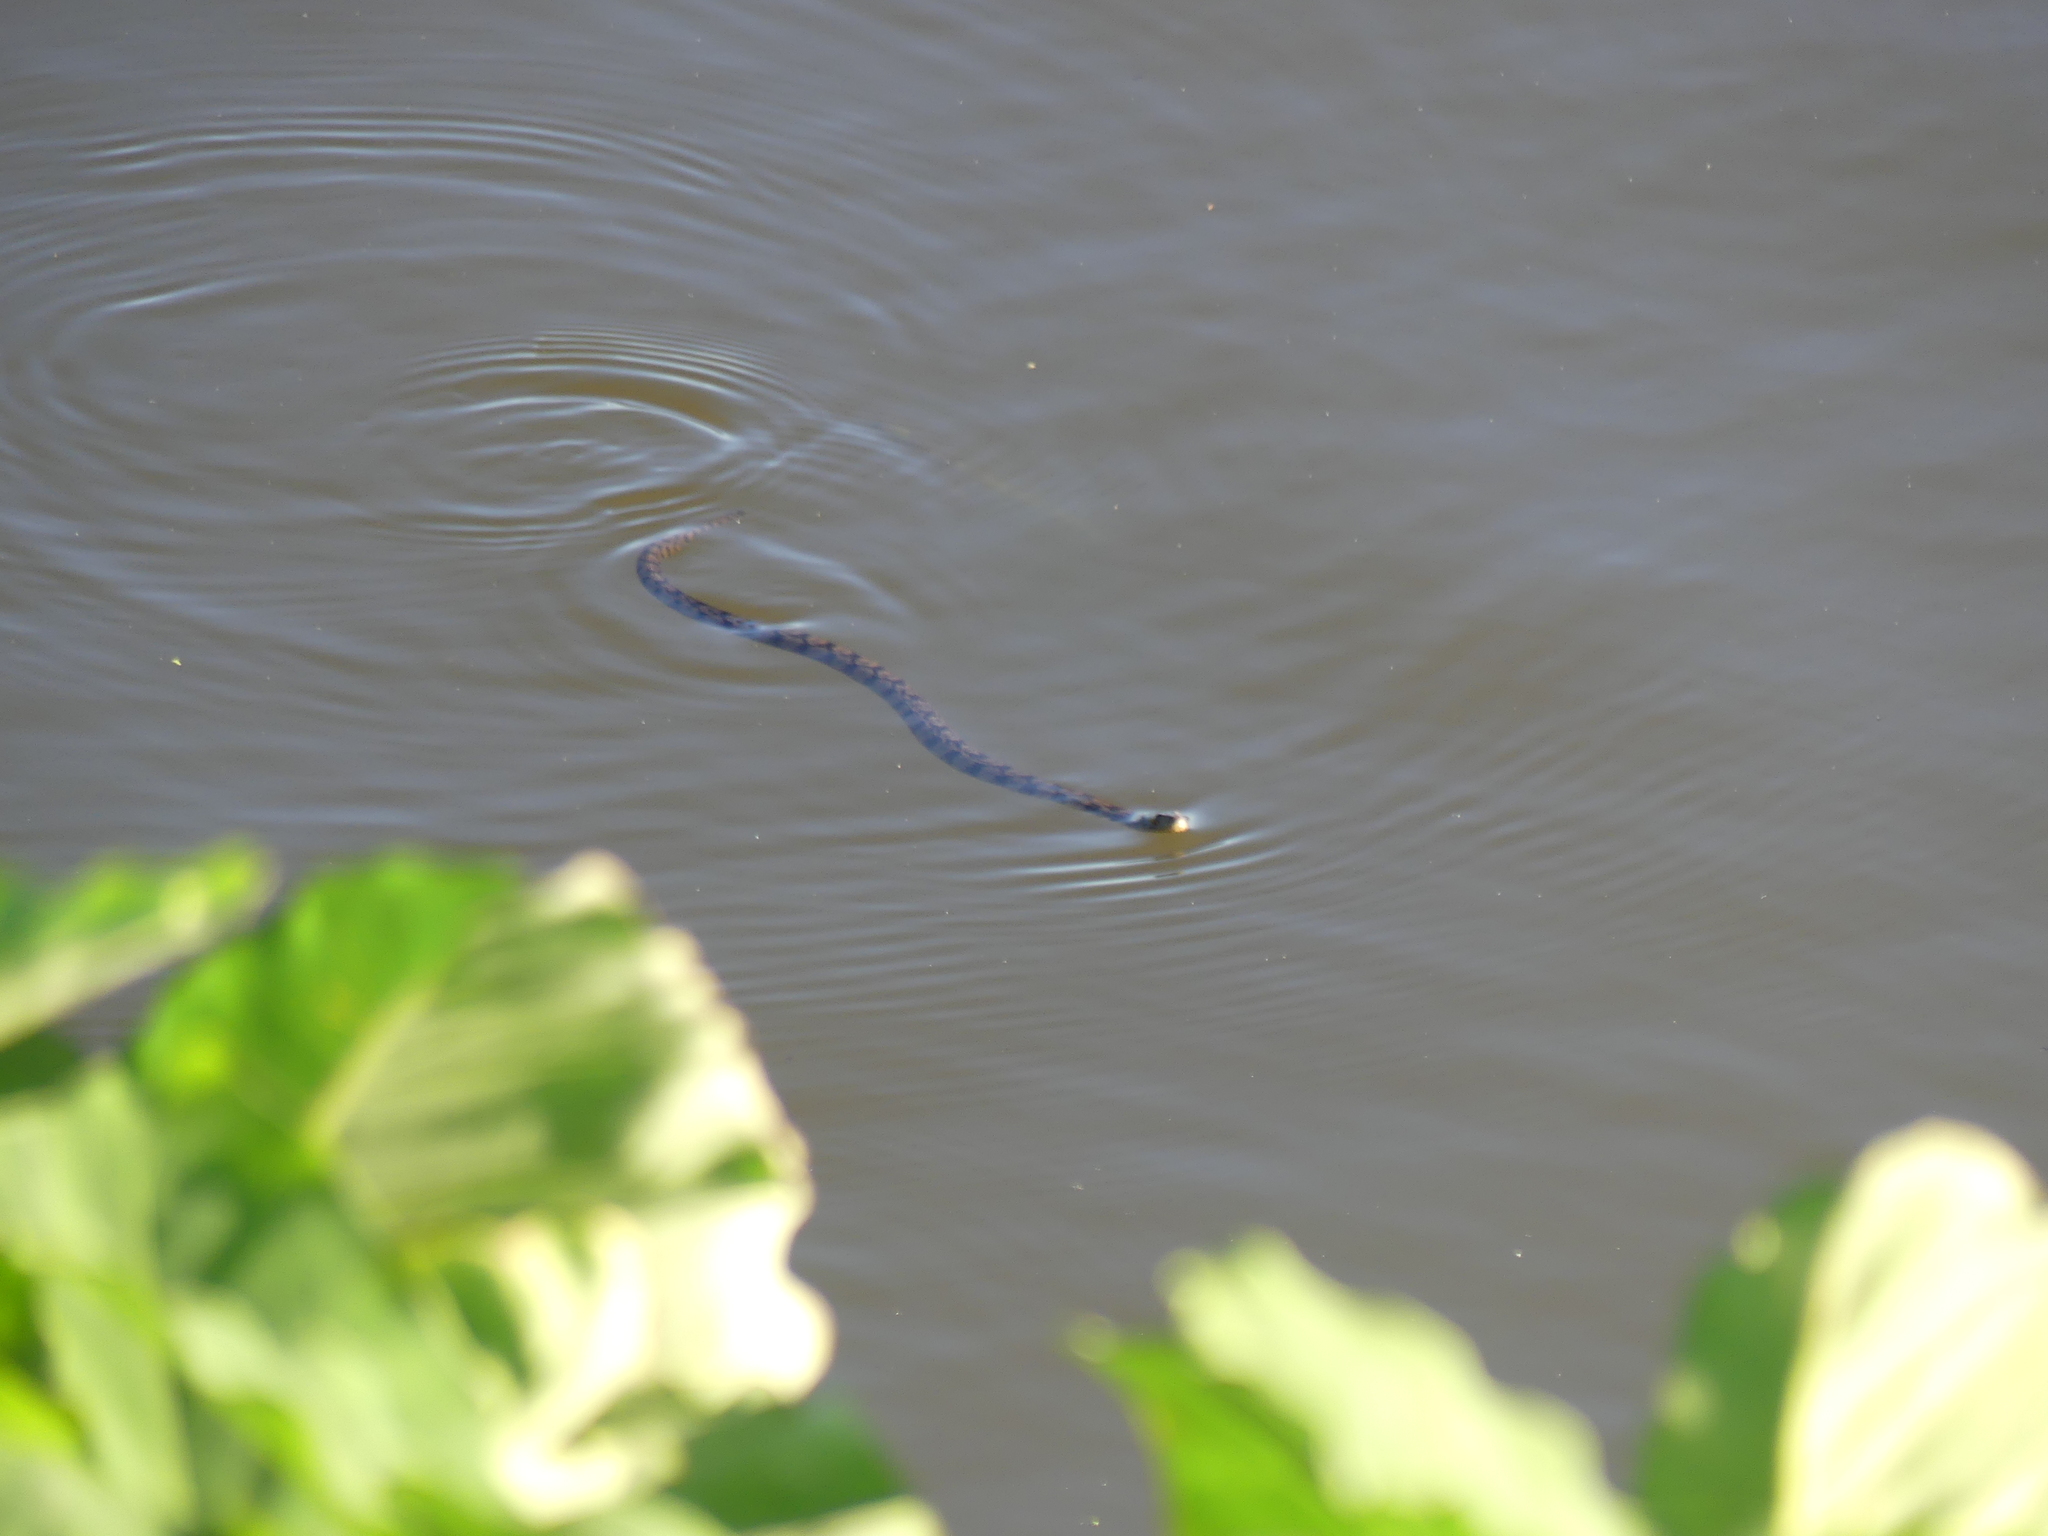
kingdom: Animalia
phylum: Chordata
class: Squamata
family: Colubridae
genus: Nerodia
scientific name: Nerodia rhombifer
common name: Diamondback water snake
